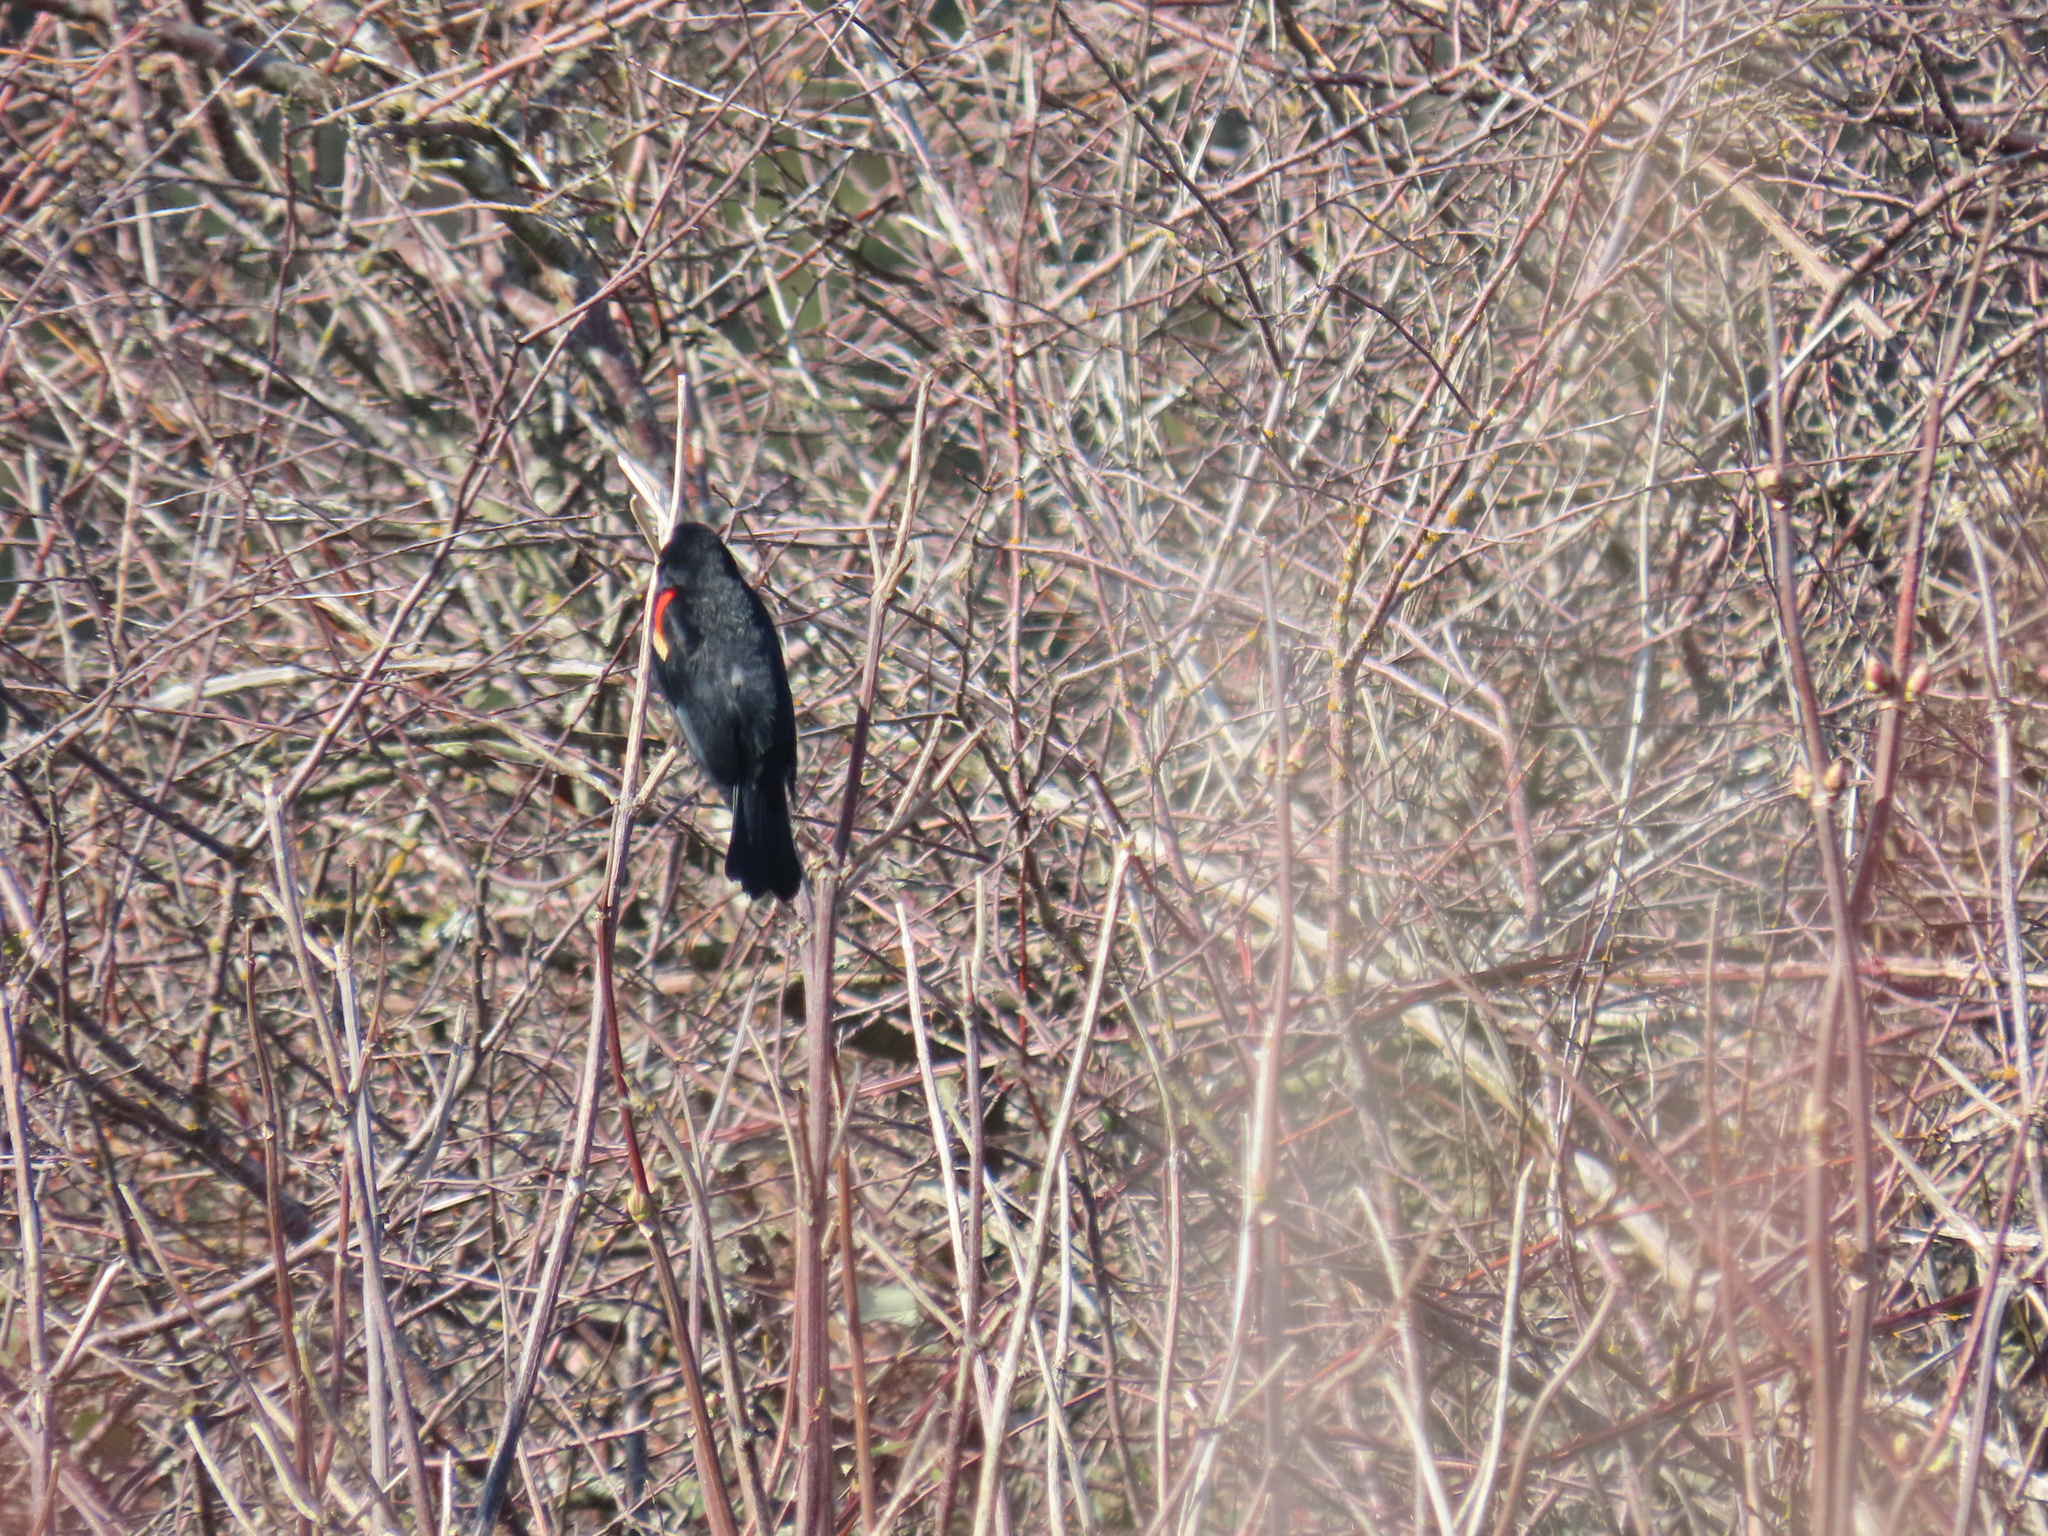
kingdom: Animalia
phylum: Chordata
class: Aves
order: Passeriformes
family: Icteridae
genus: Agelaius
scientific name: Agelaius phoeniceus
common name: Red-winged blackbird
